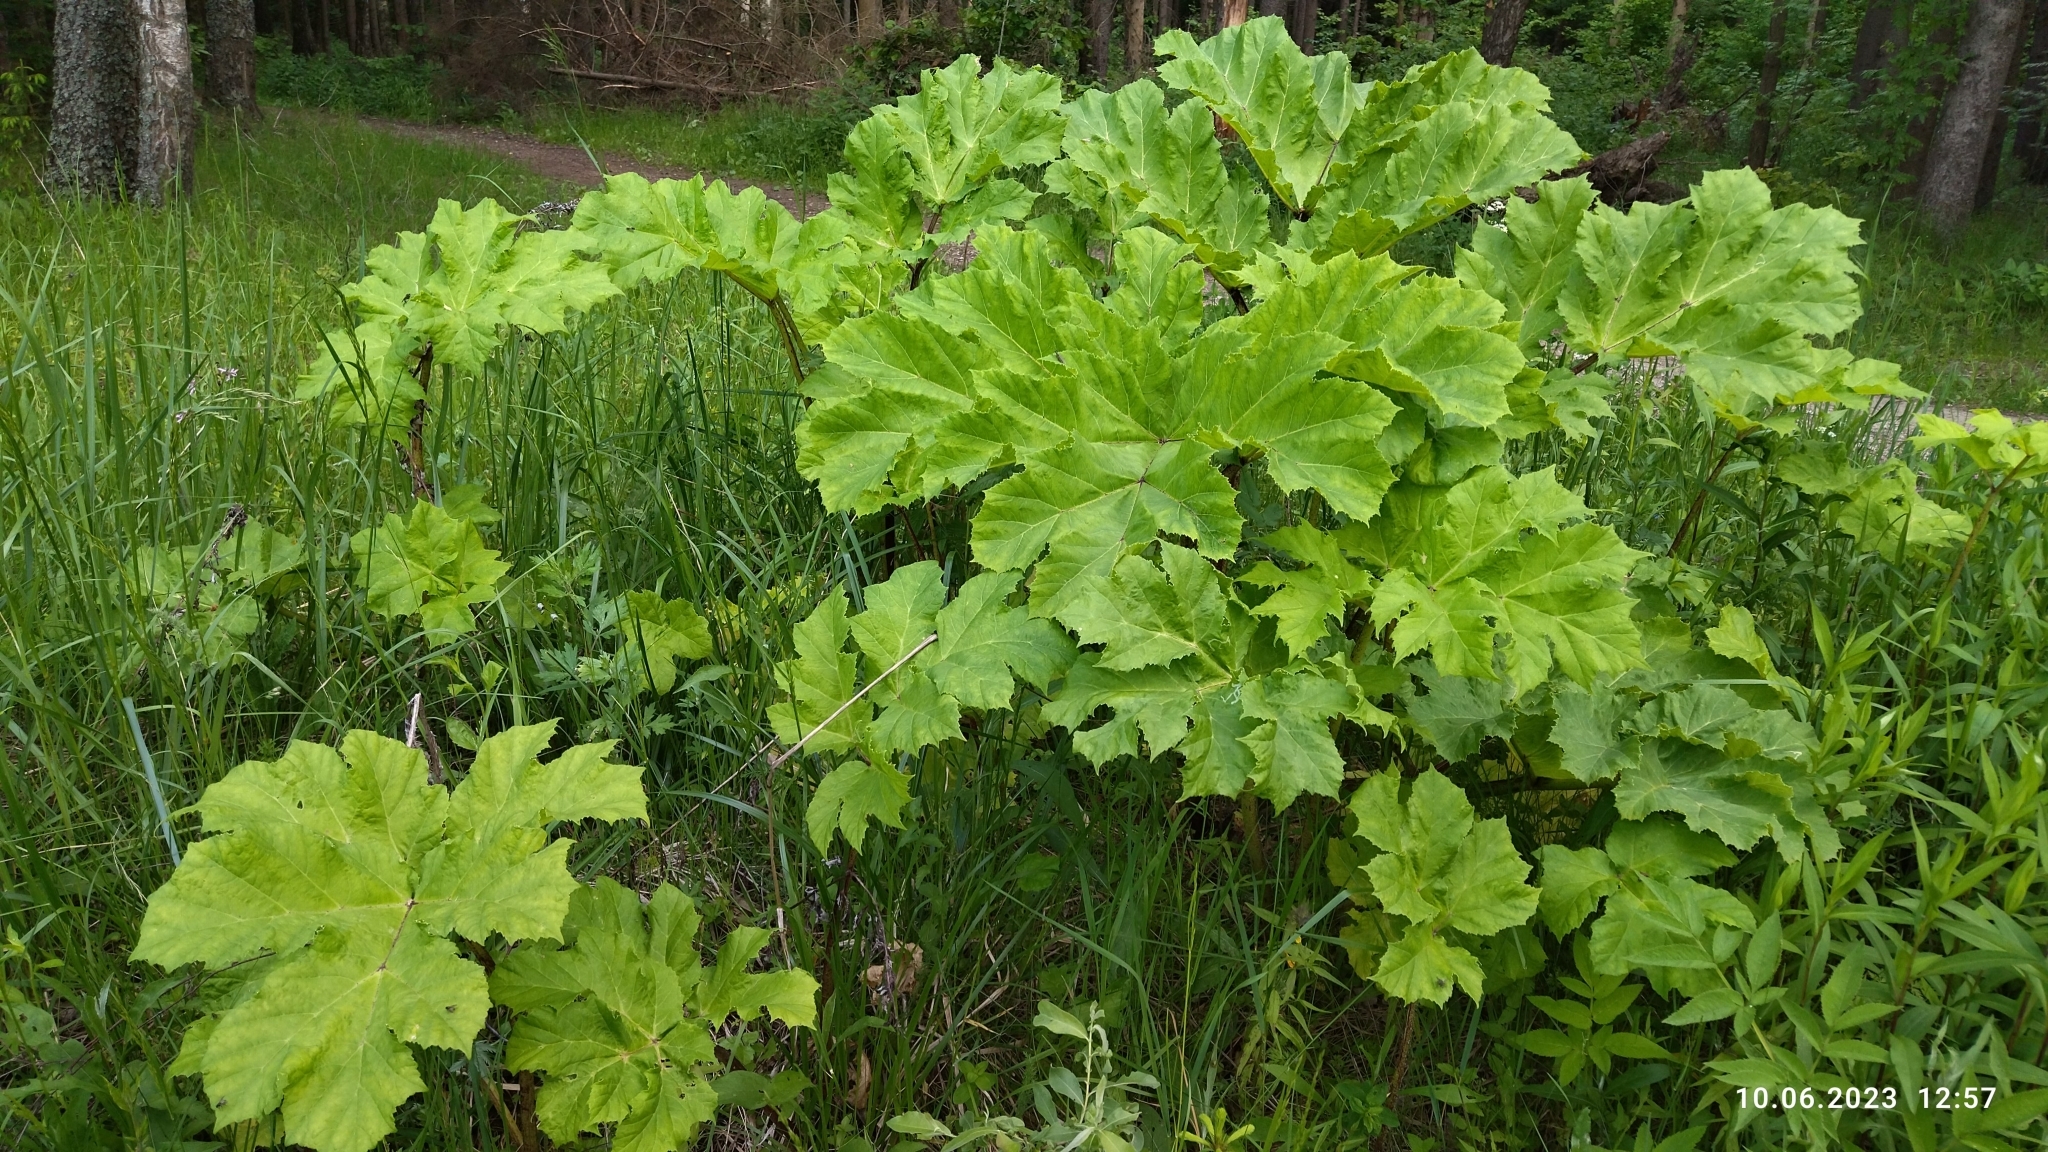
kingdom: Plantae
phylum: Tracheophyta
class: Magnoliopsida
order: Apiales
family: Apiaceae
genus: Heracleum
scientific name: Heracleum sosnowskyi
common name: Sosnowsky's hogweed
